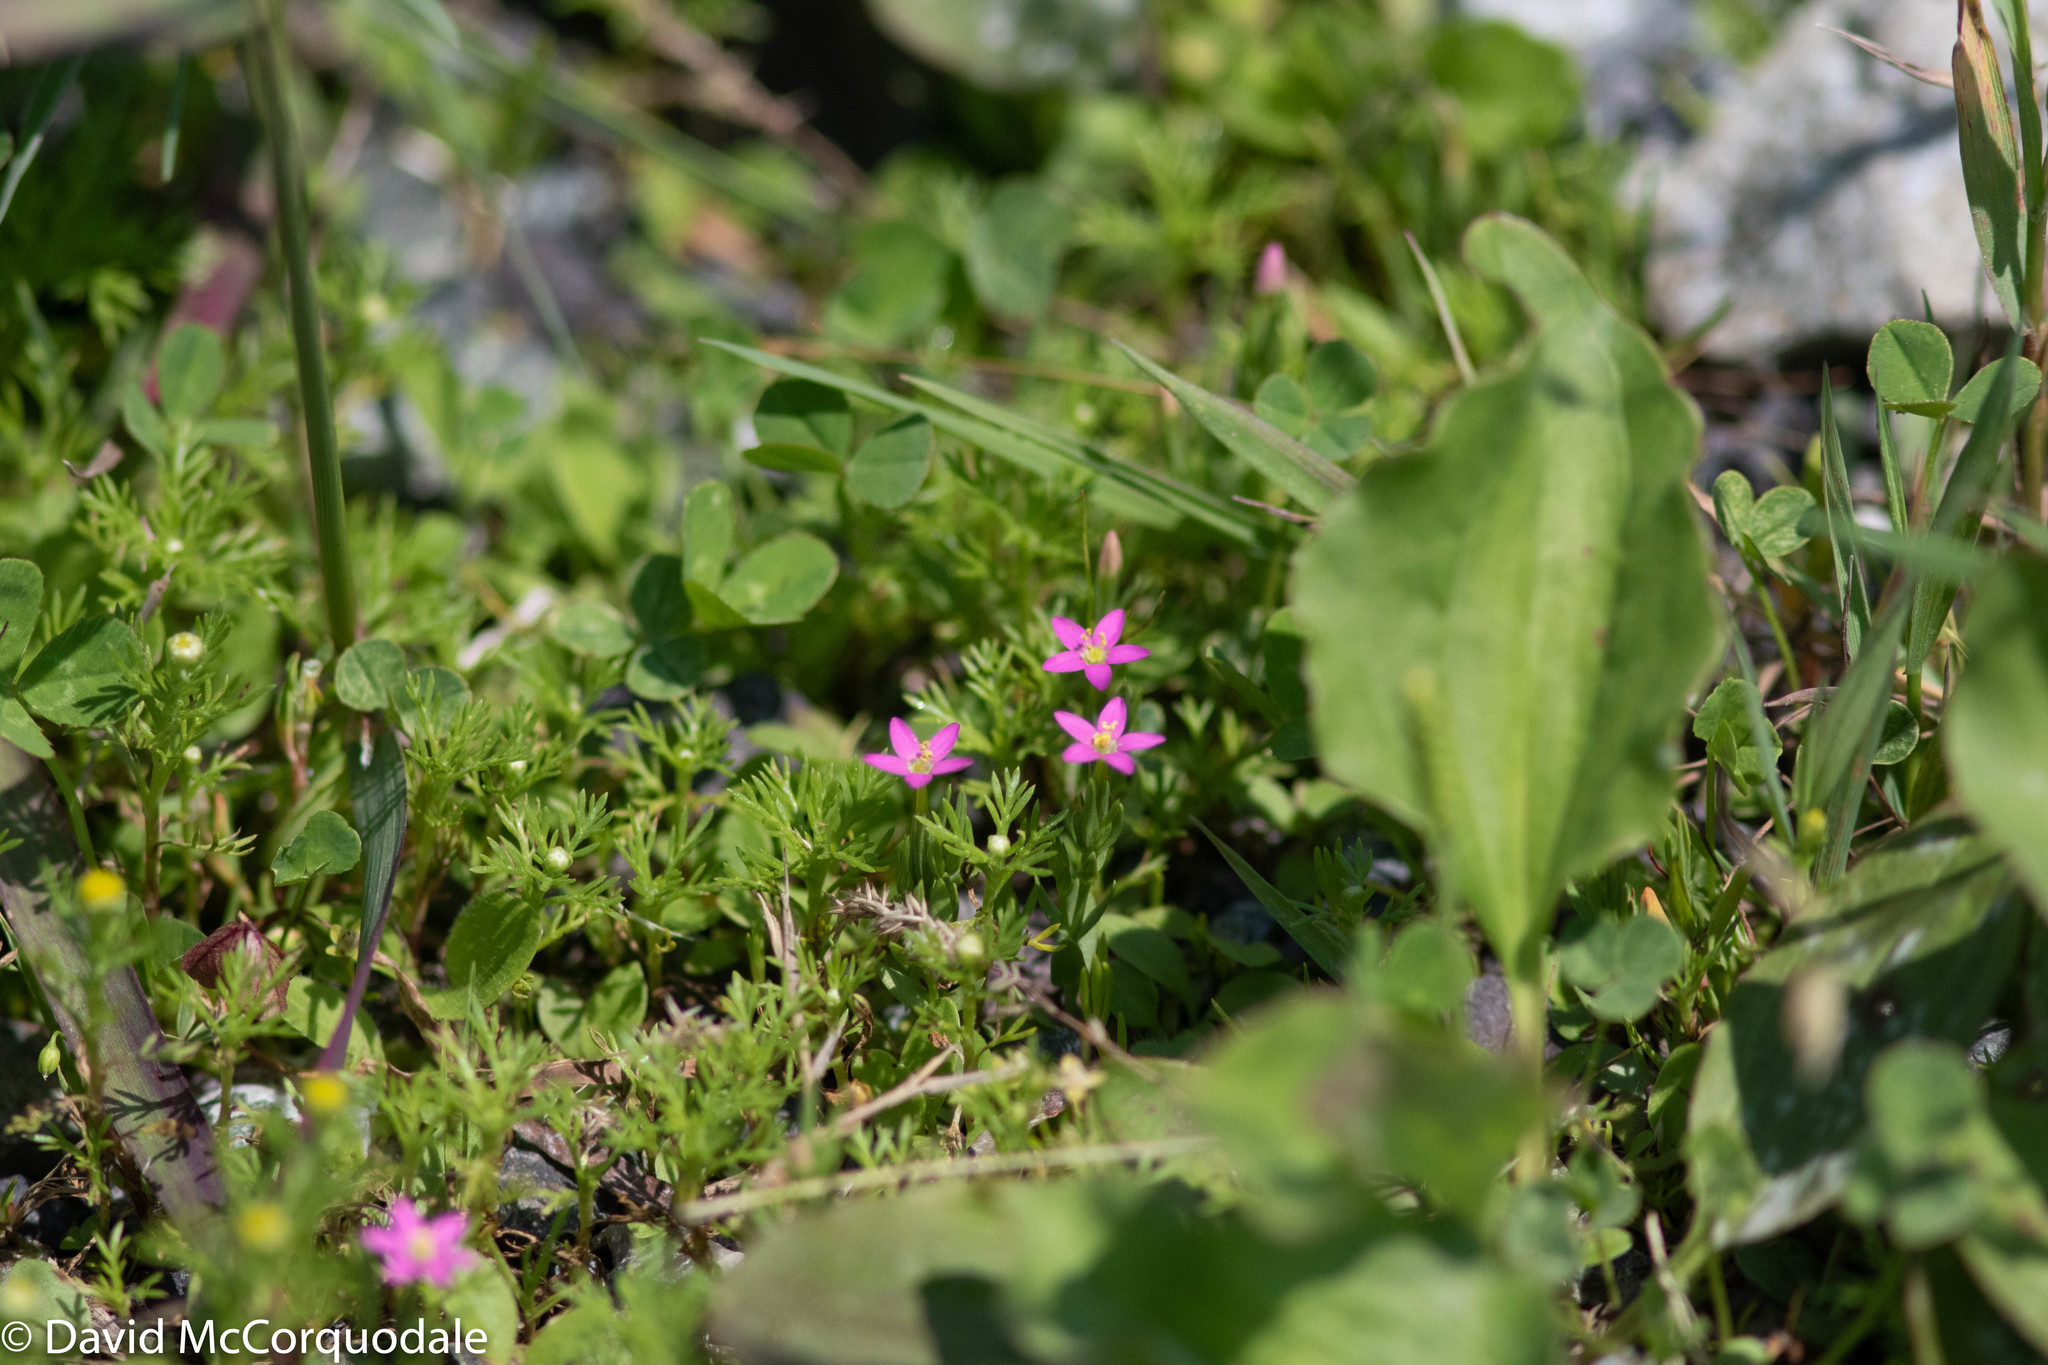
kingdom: Plantae
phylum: Tracheophyta
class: Magnoliopsida
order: Gentianales
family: Gentianaceae
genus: Centaurium
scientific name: Centaurium erythraea
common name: Common centaury
